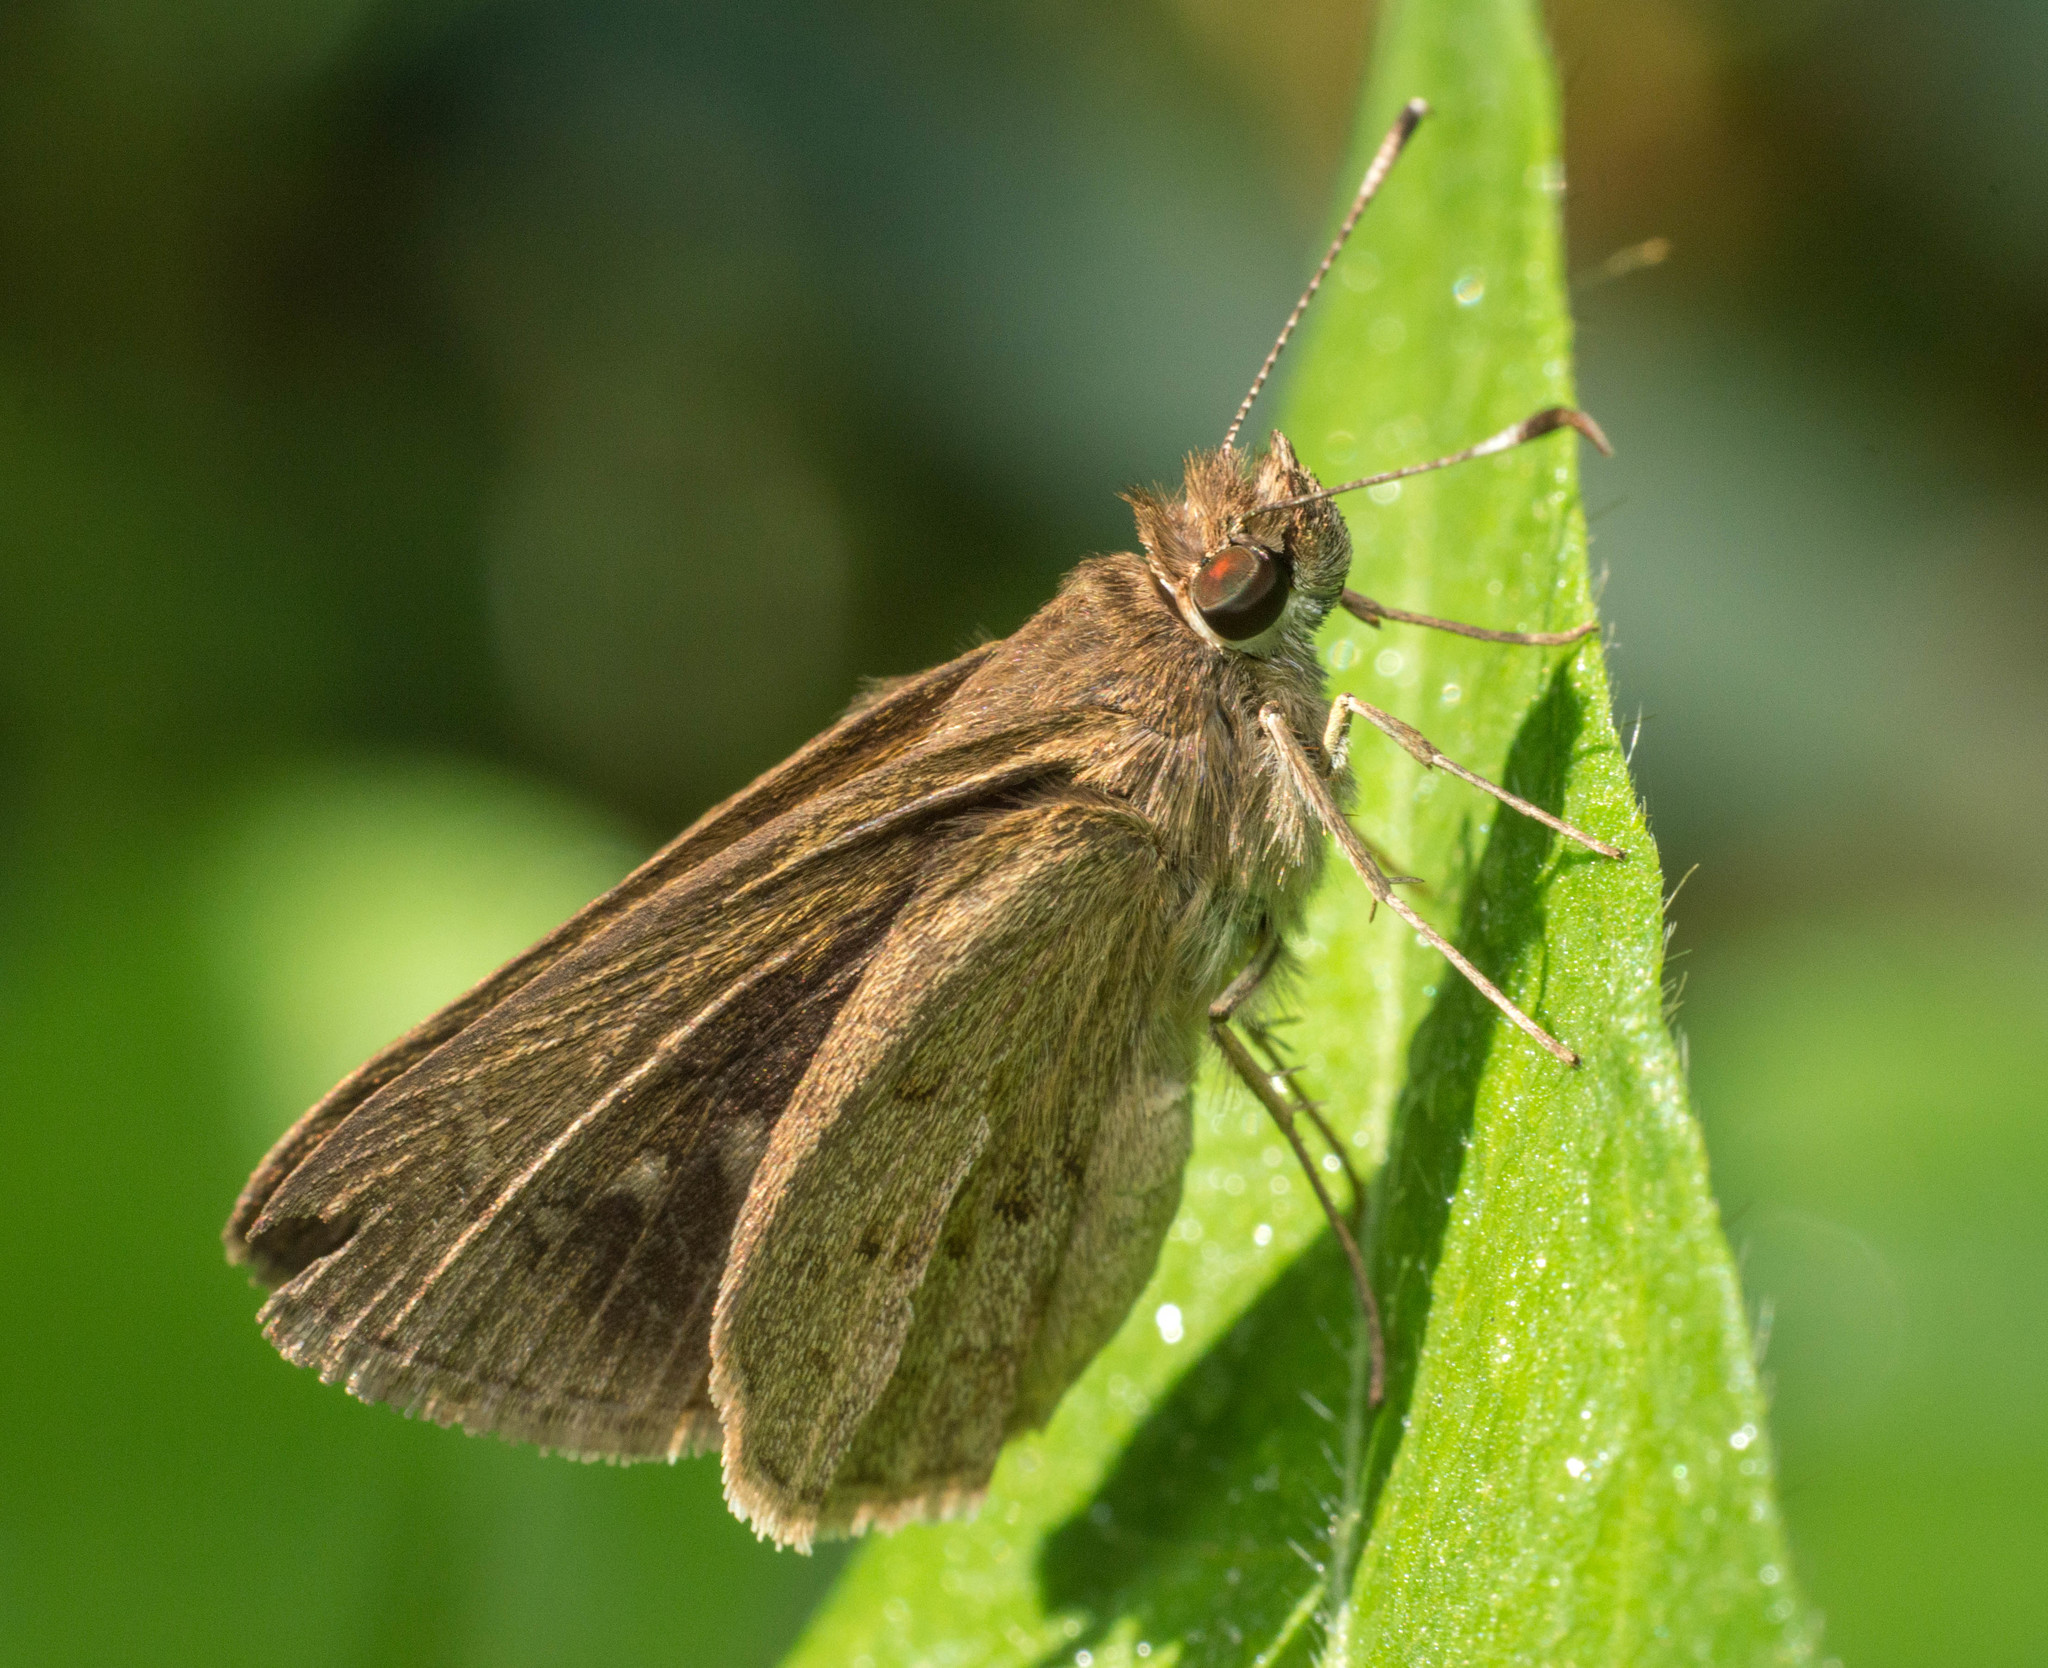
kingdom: Animalia
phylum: Arthropoda
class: Insecta
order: Lepidoptera
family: Hesperiidae
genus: Cymaenes
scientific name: Cymaenes gisca
